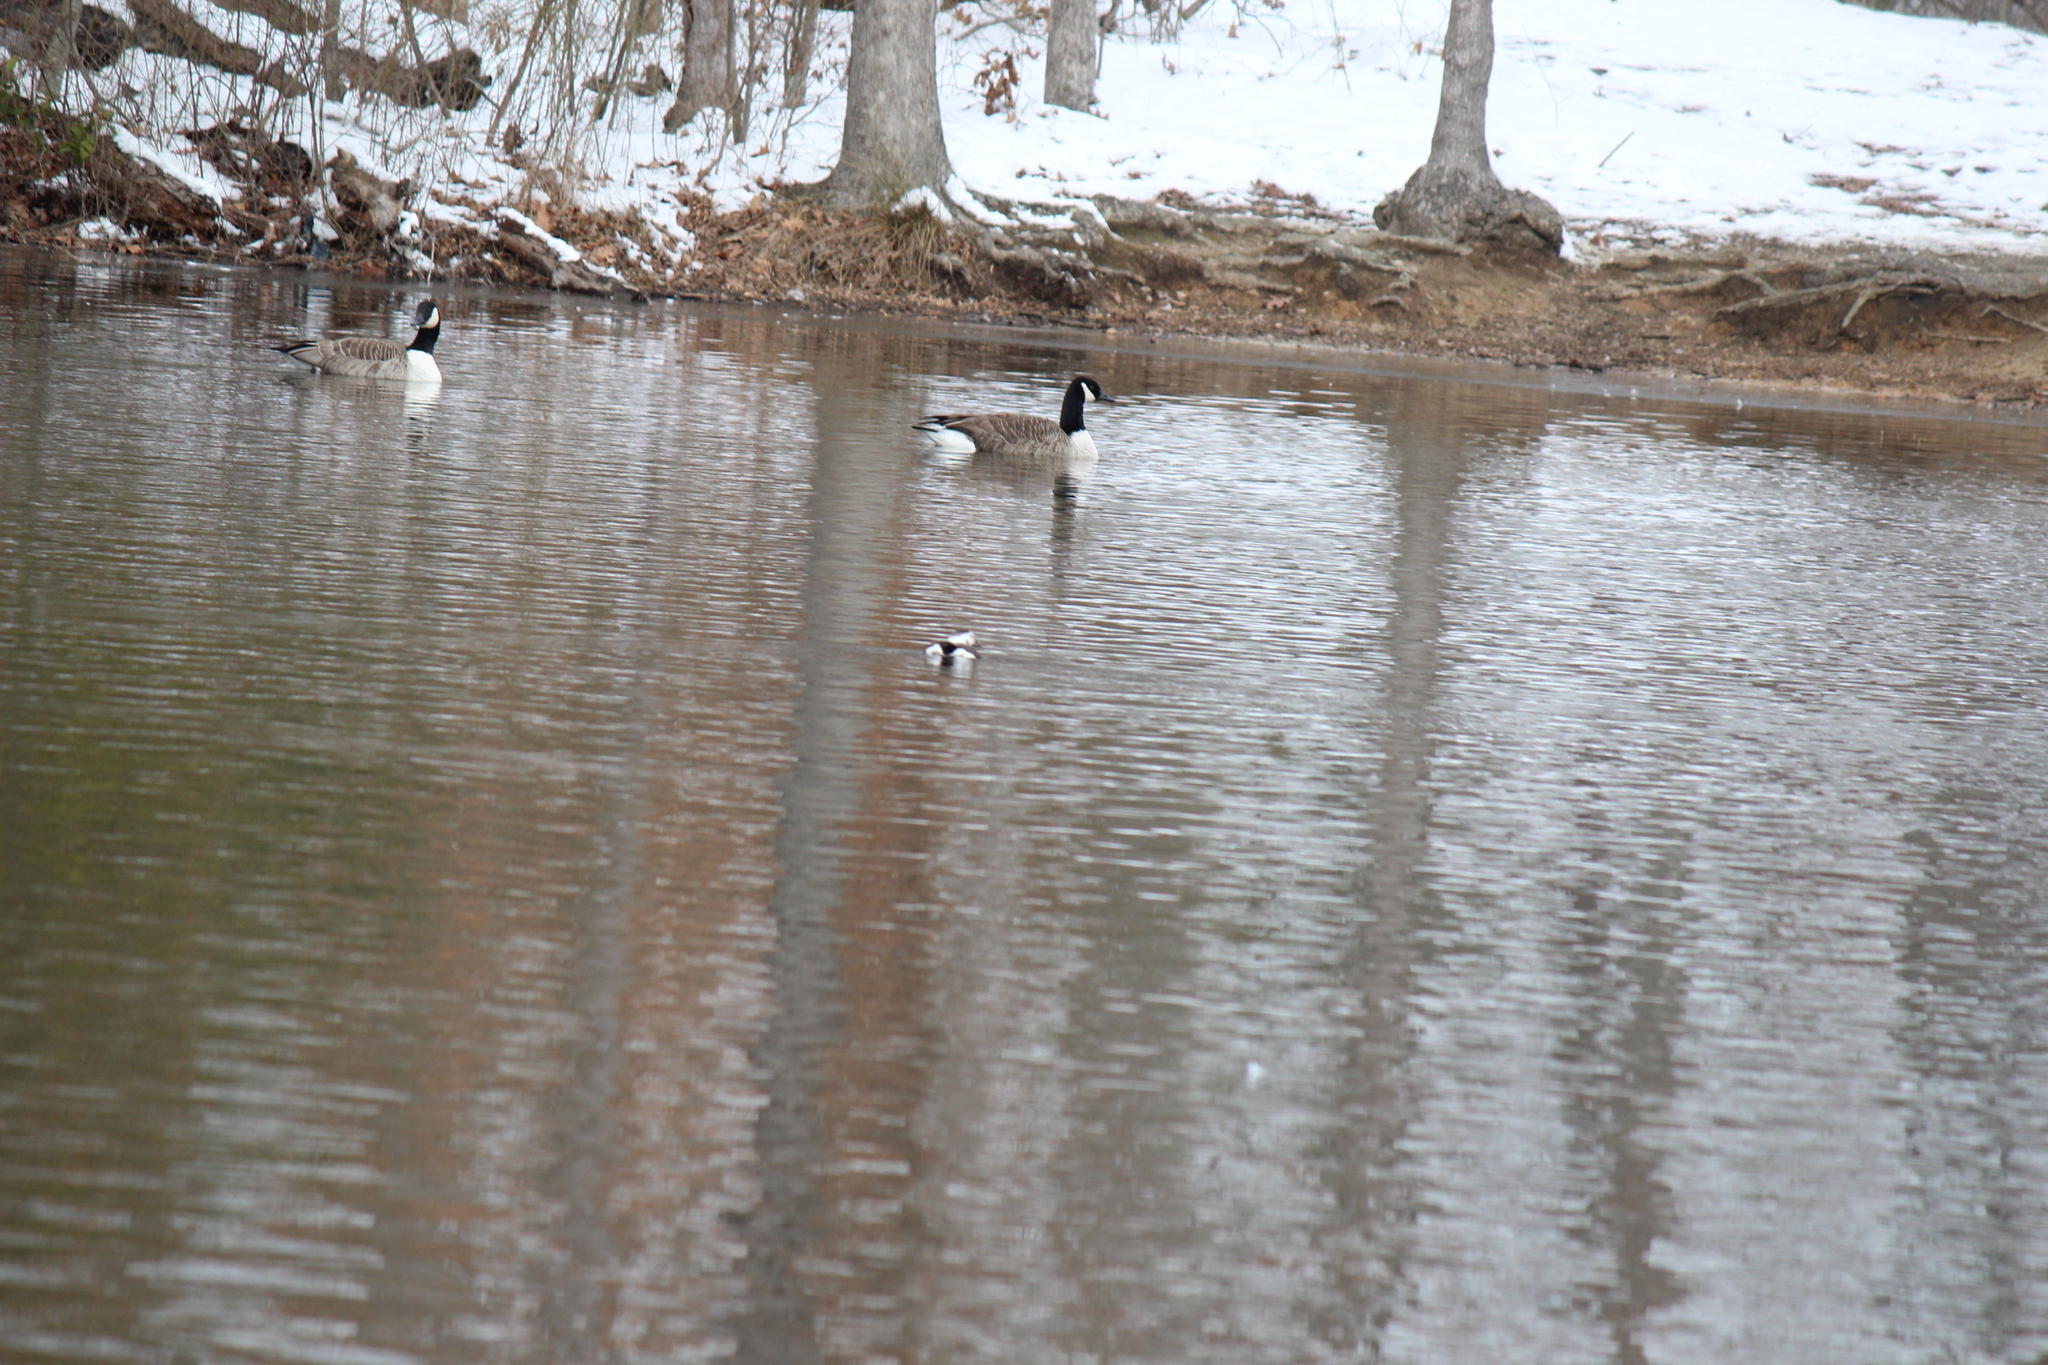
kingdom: Animalia
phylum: Chordata
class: Aves
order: Anseriformes
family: Anatidae
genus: Clangula
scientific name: Clangula hyemalis
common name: Long-tailed duck
